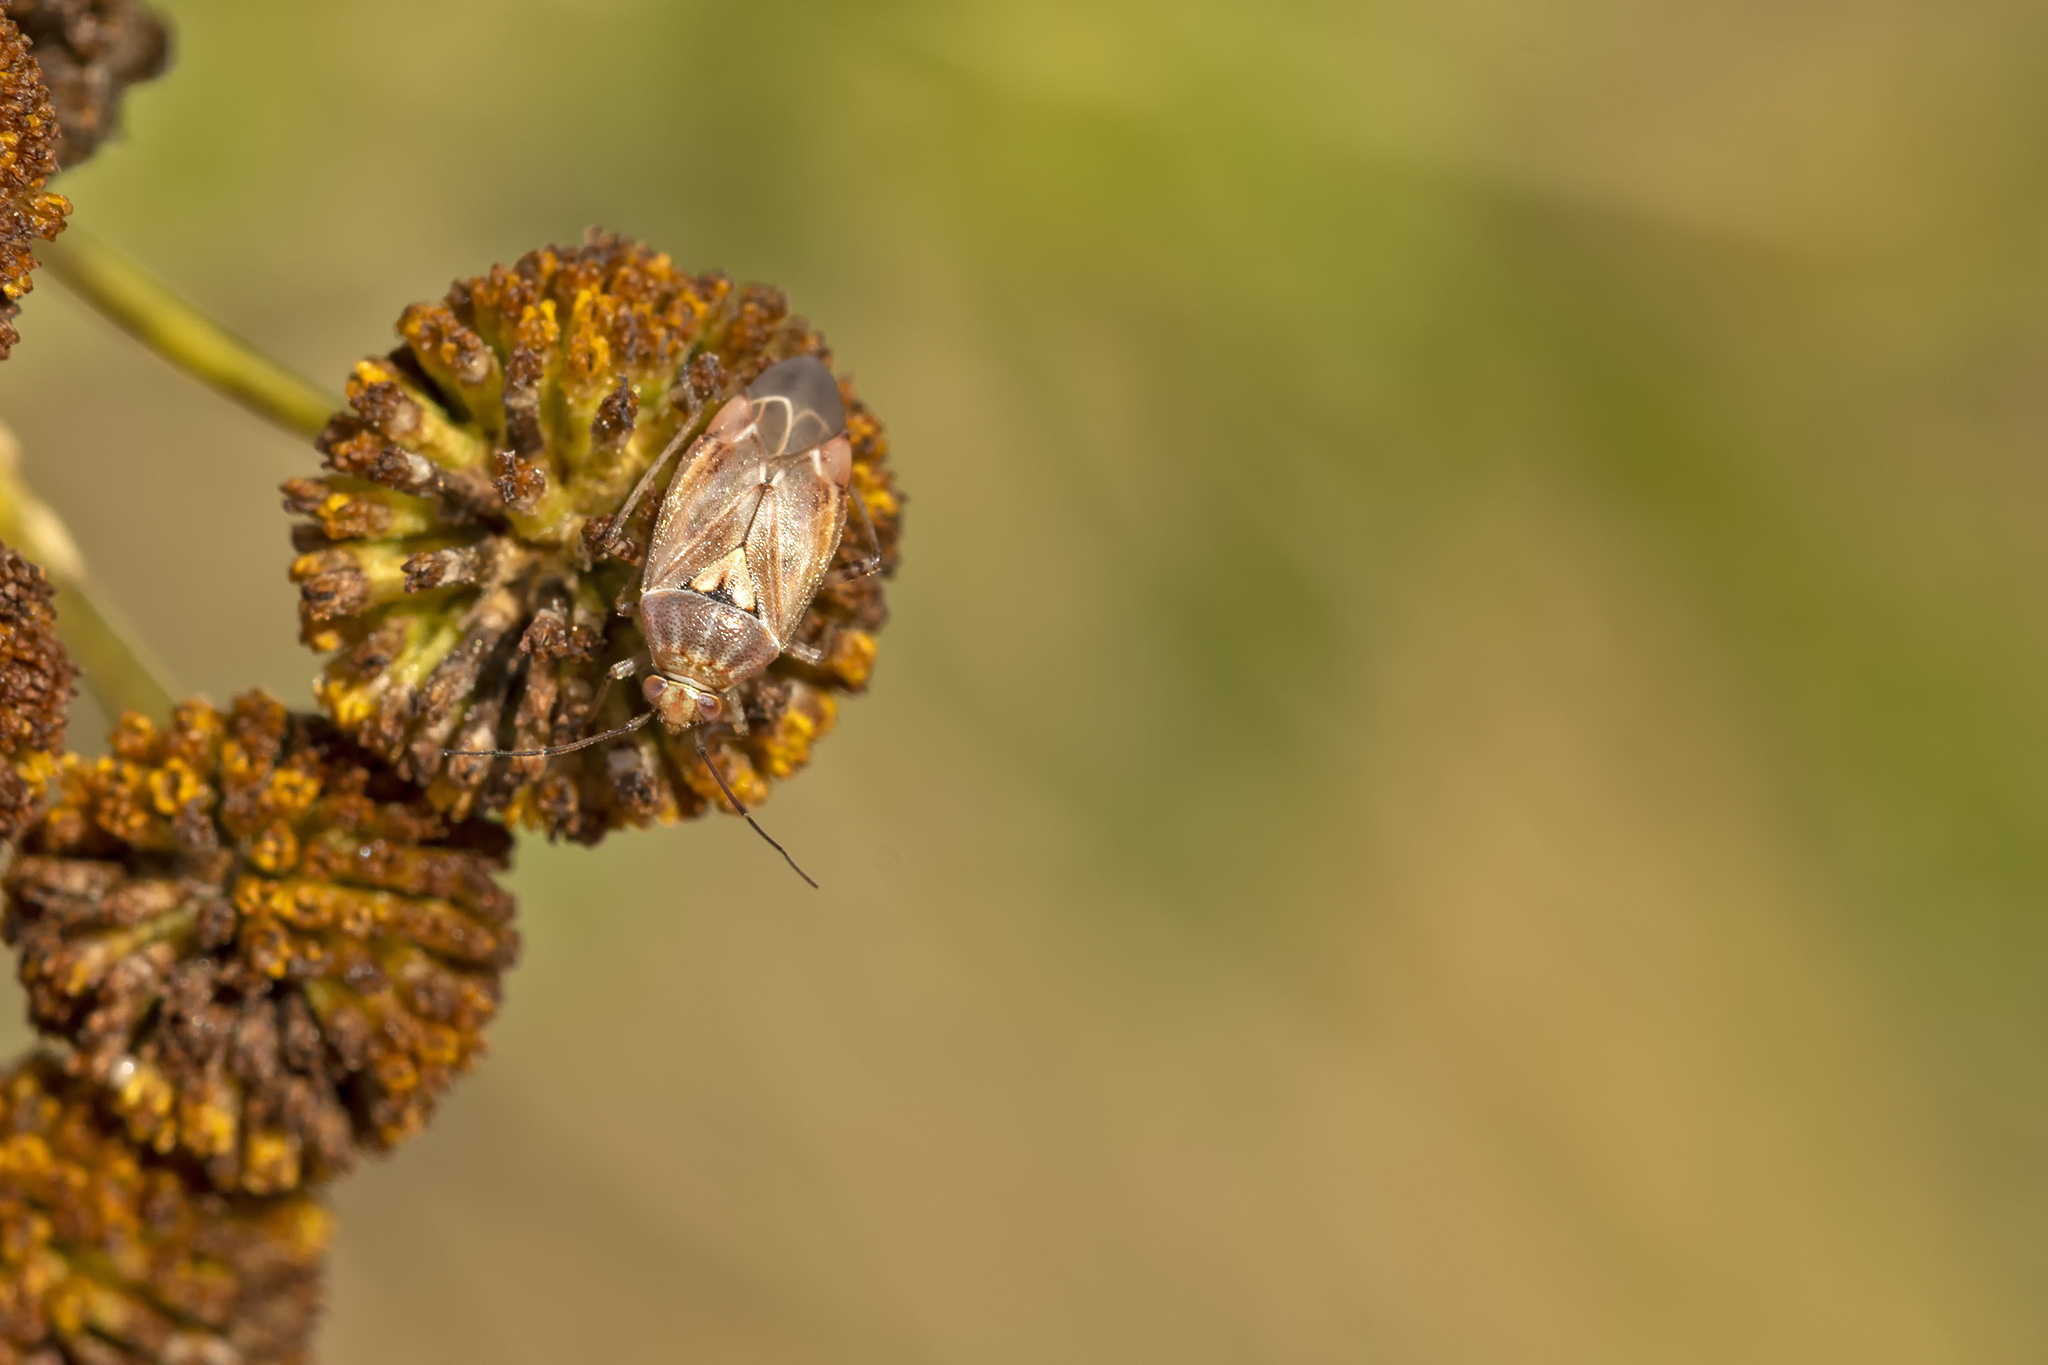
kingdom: Animalia
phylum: Arthropoda
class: Insecta
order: Hemiptera
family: Miridae
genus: Lygus
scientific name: Lygus rugulipennis
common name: European tarnished plant bug
